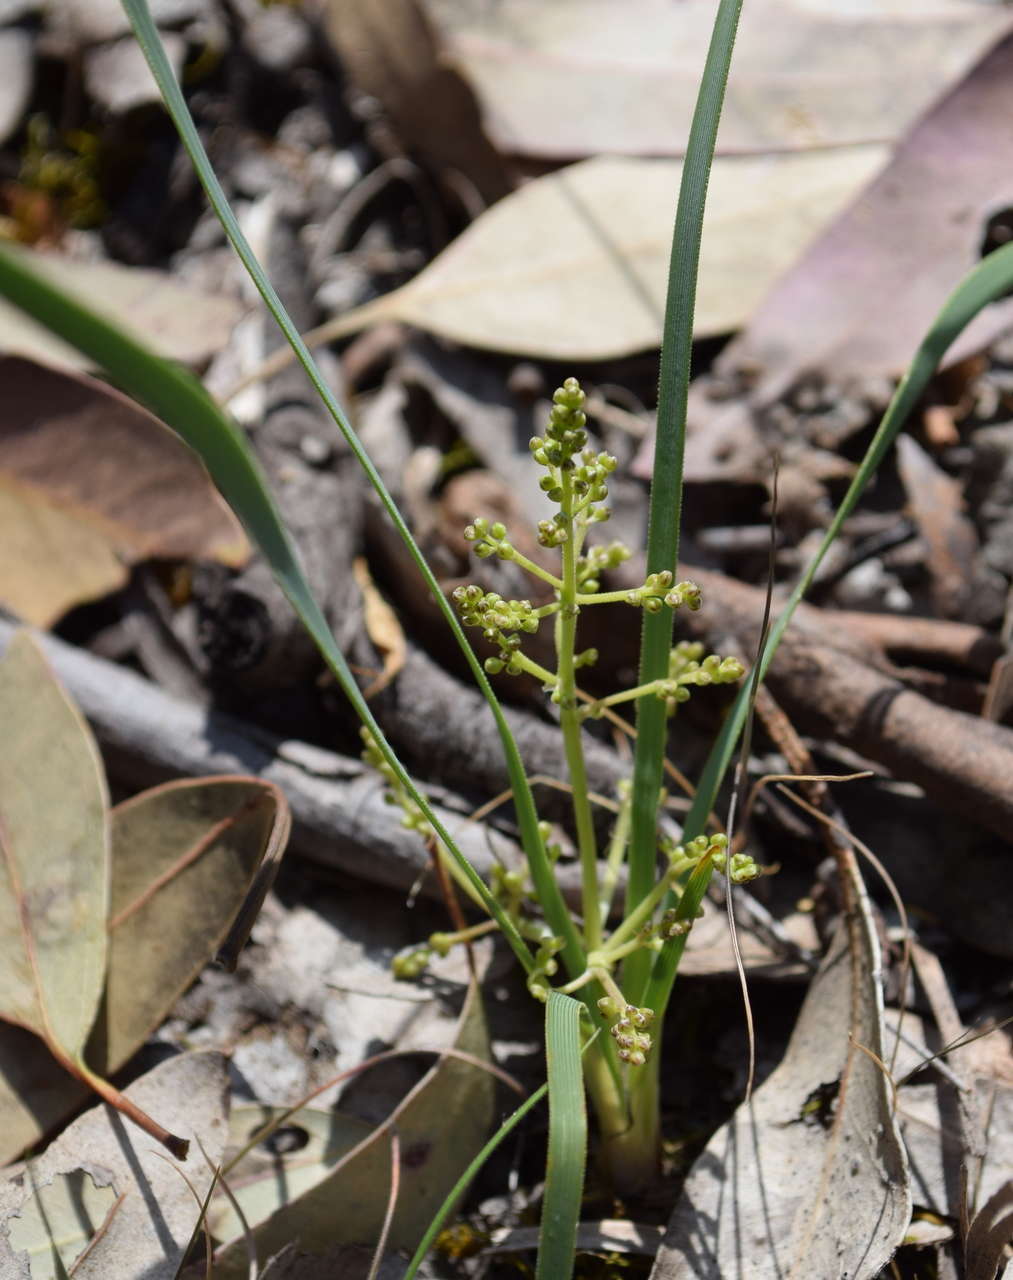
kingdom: Plantae
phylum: Tracheophyta
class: Liliopsida
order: Asparagales
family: Asparagaceae
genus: Lomandra
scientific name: Lomandra filiformis
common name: Wattle mat-rush
